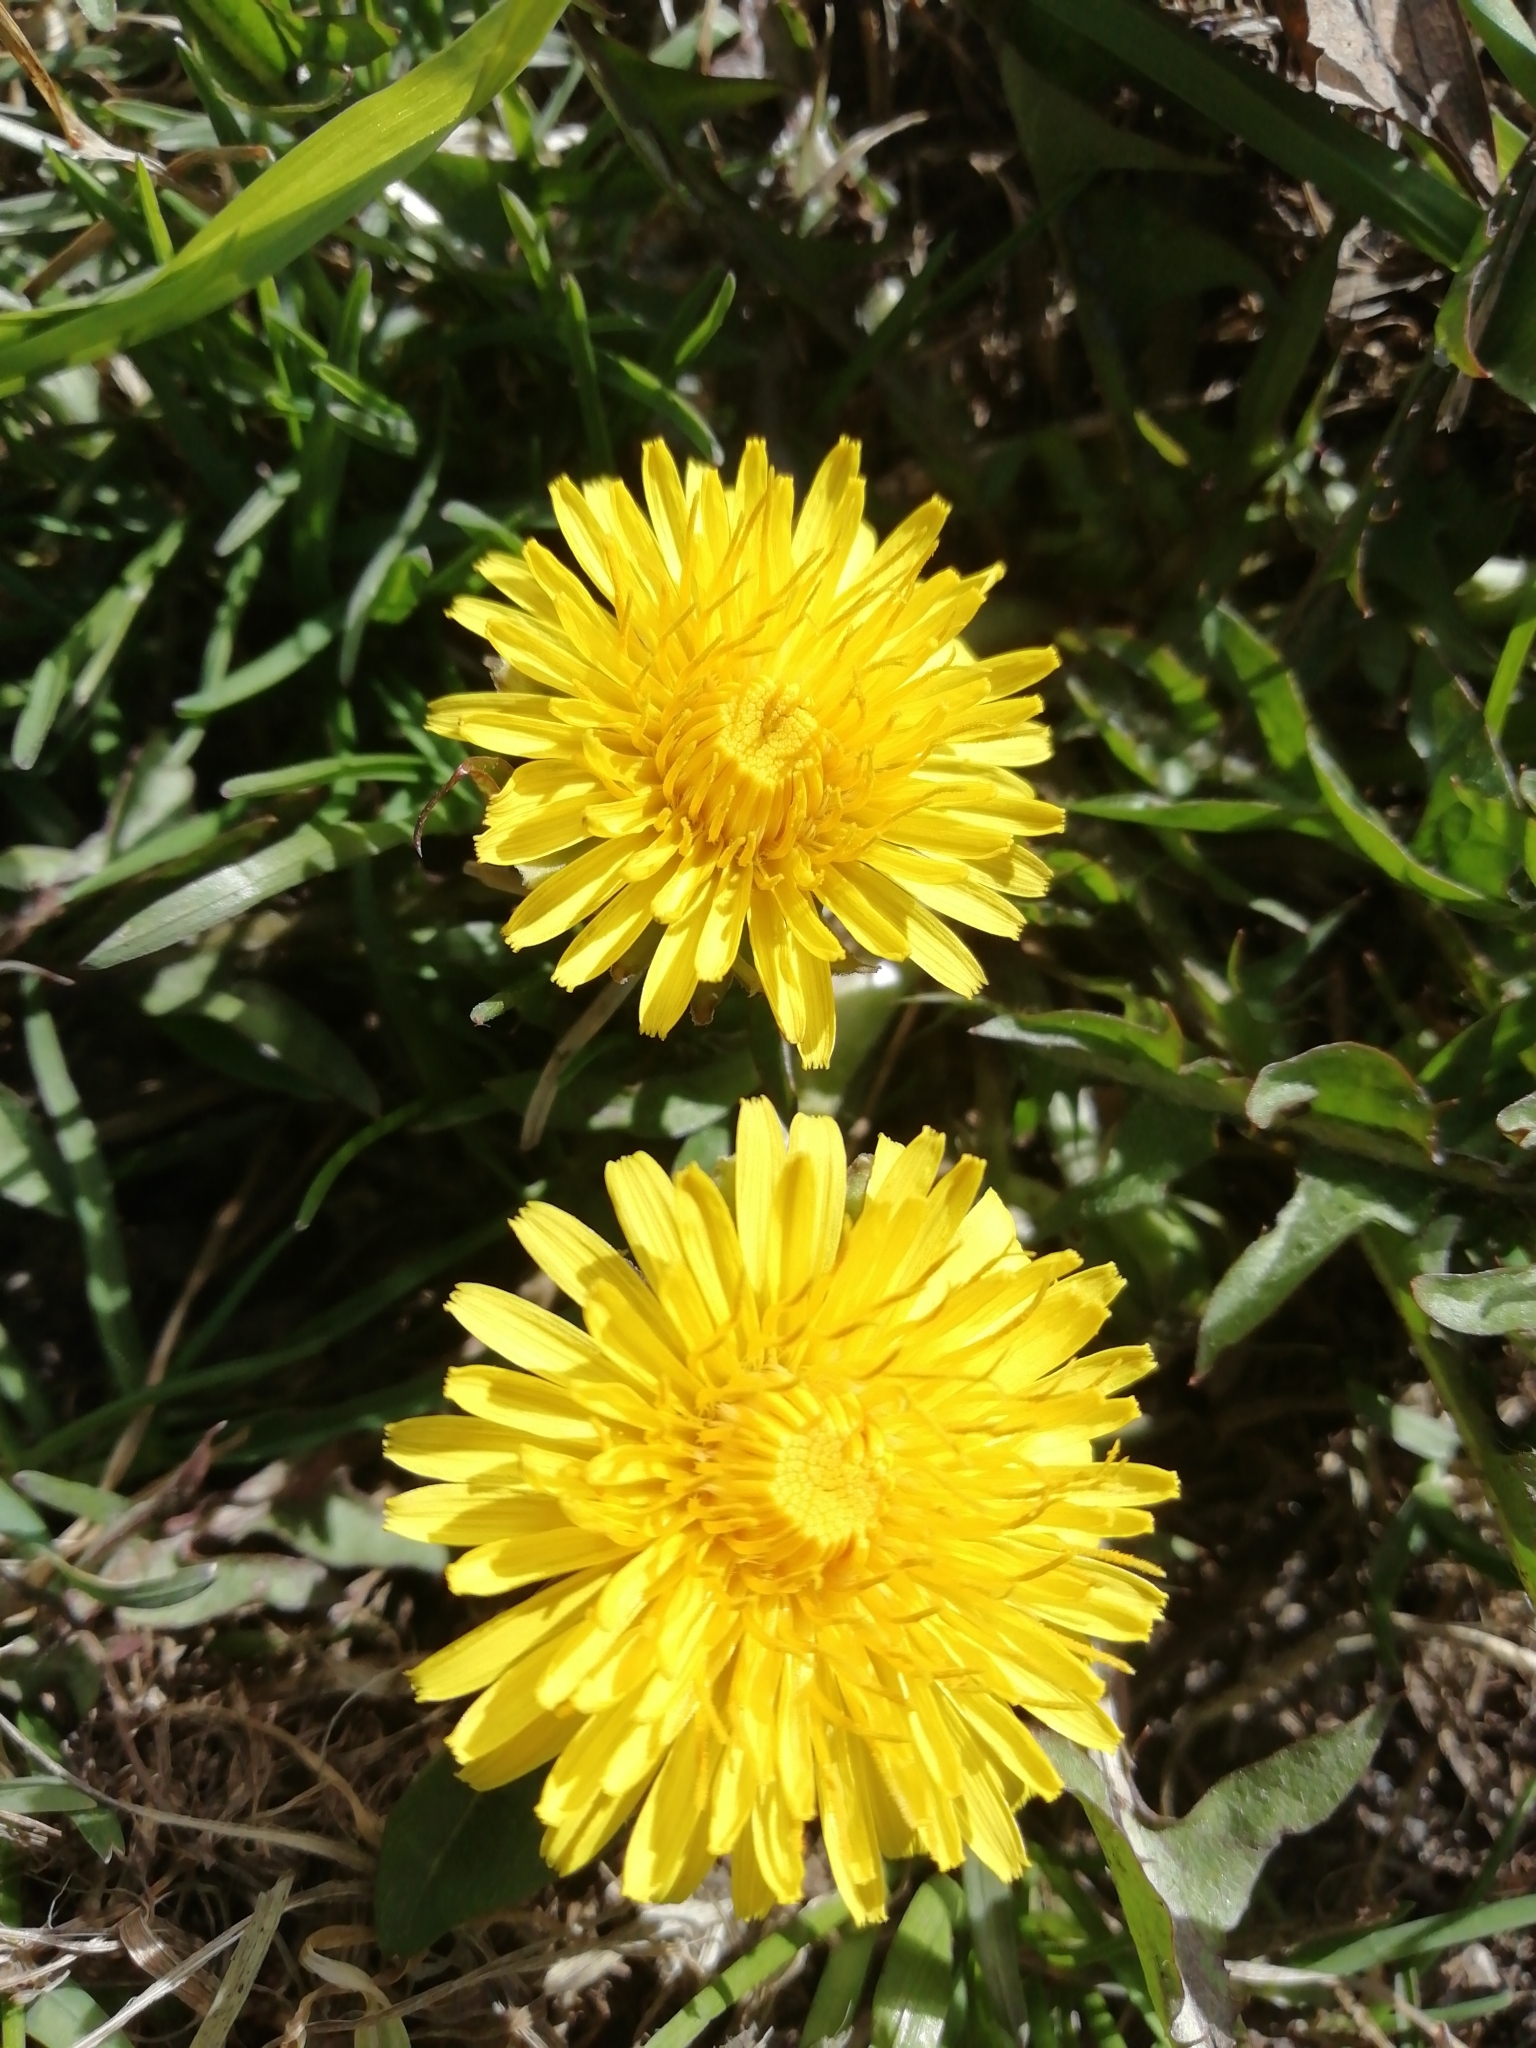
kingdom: Plantae
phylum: Tracheophyta
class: Magnoliopsida
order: Asterales
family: Asteraceae
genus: Taraxacum
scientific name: Taraxacum officinale
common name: Common dandelion
